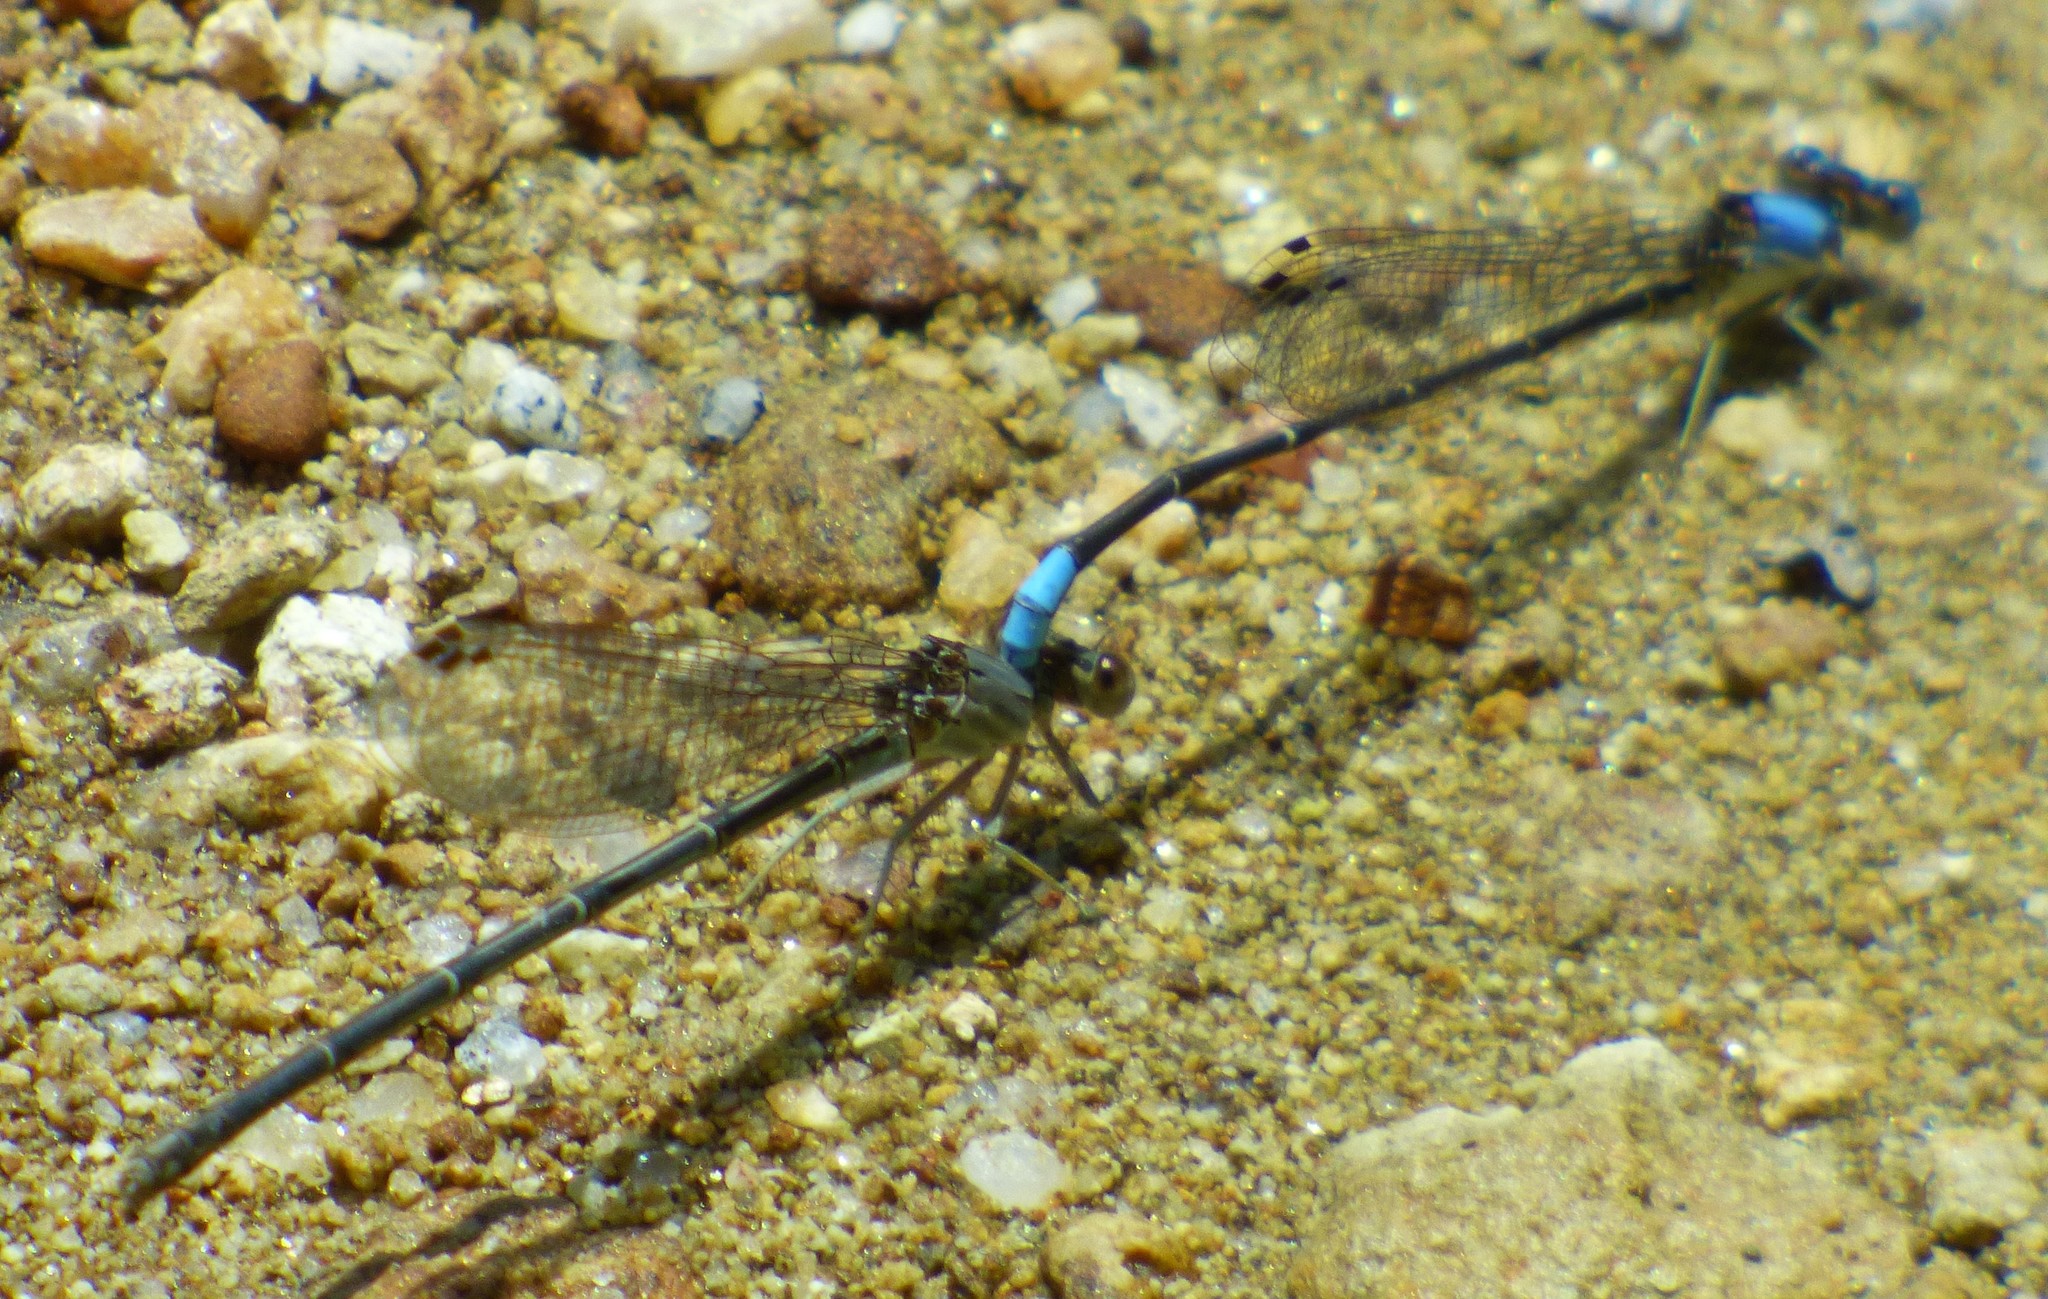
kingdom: Animalia
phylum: Arthropoda
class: Insecta
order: Odonata
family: Coenagrionidae
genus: Argia
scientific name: Argia apicalis
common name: Blue-fronted dancer
